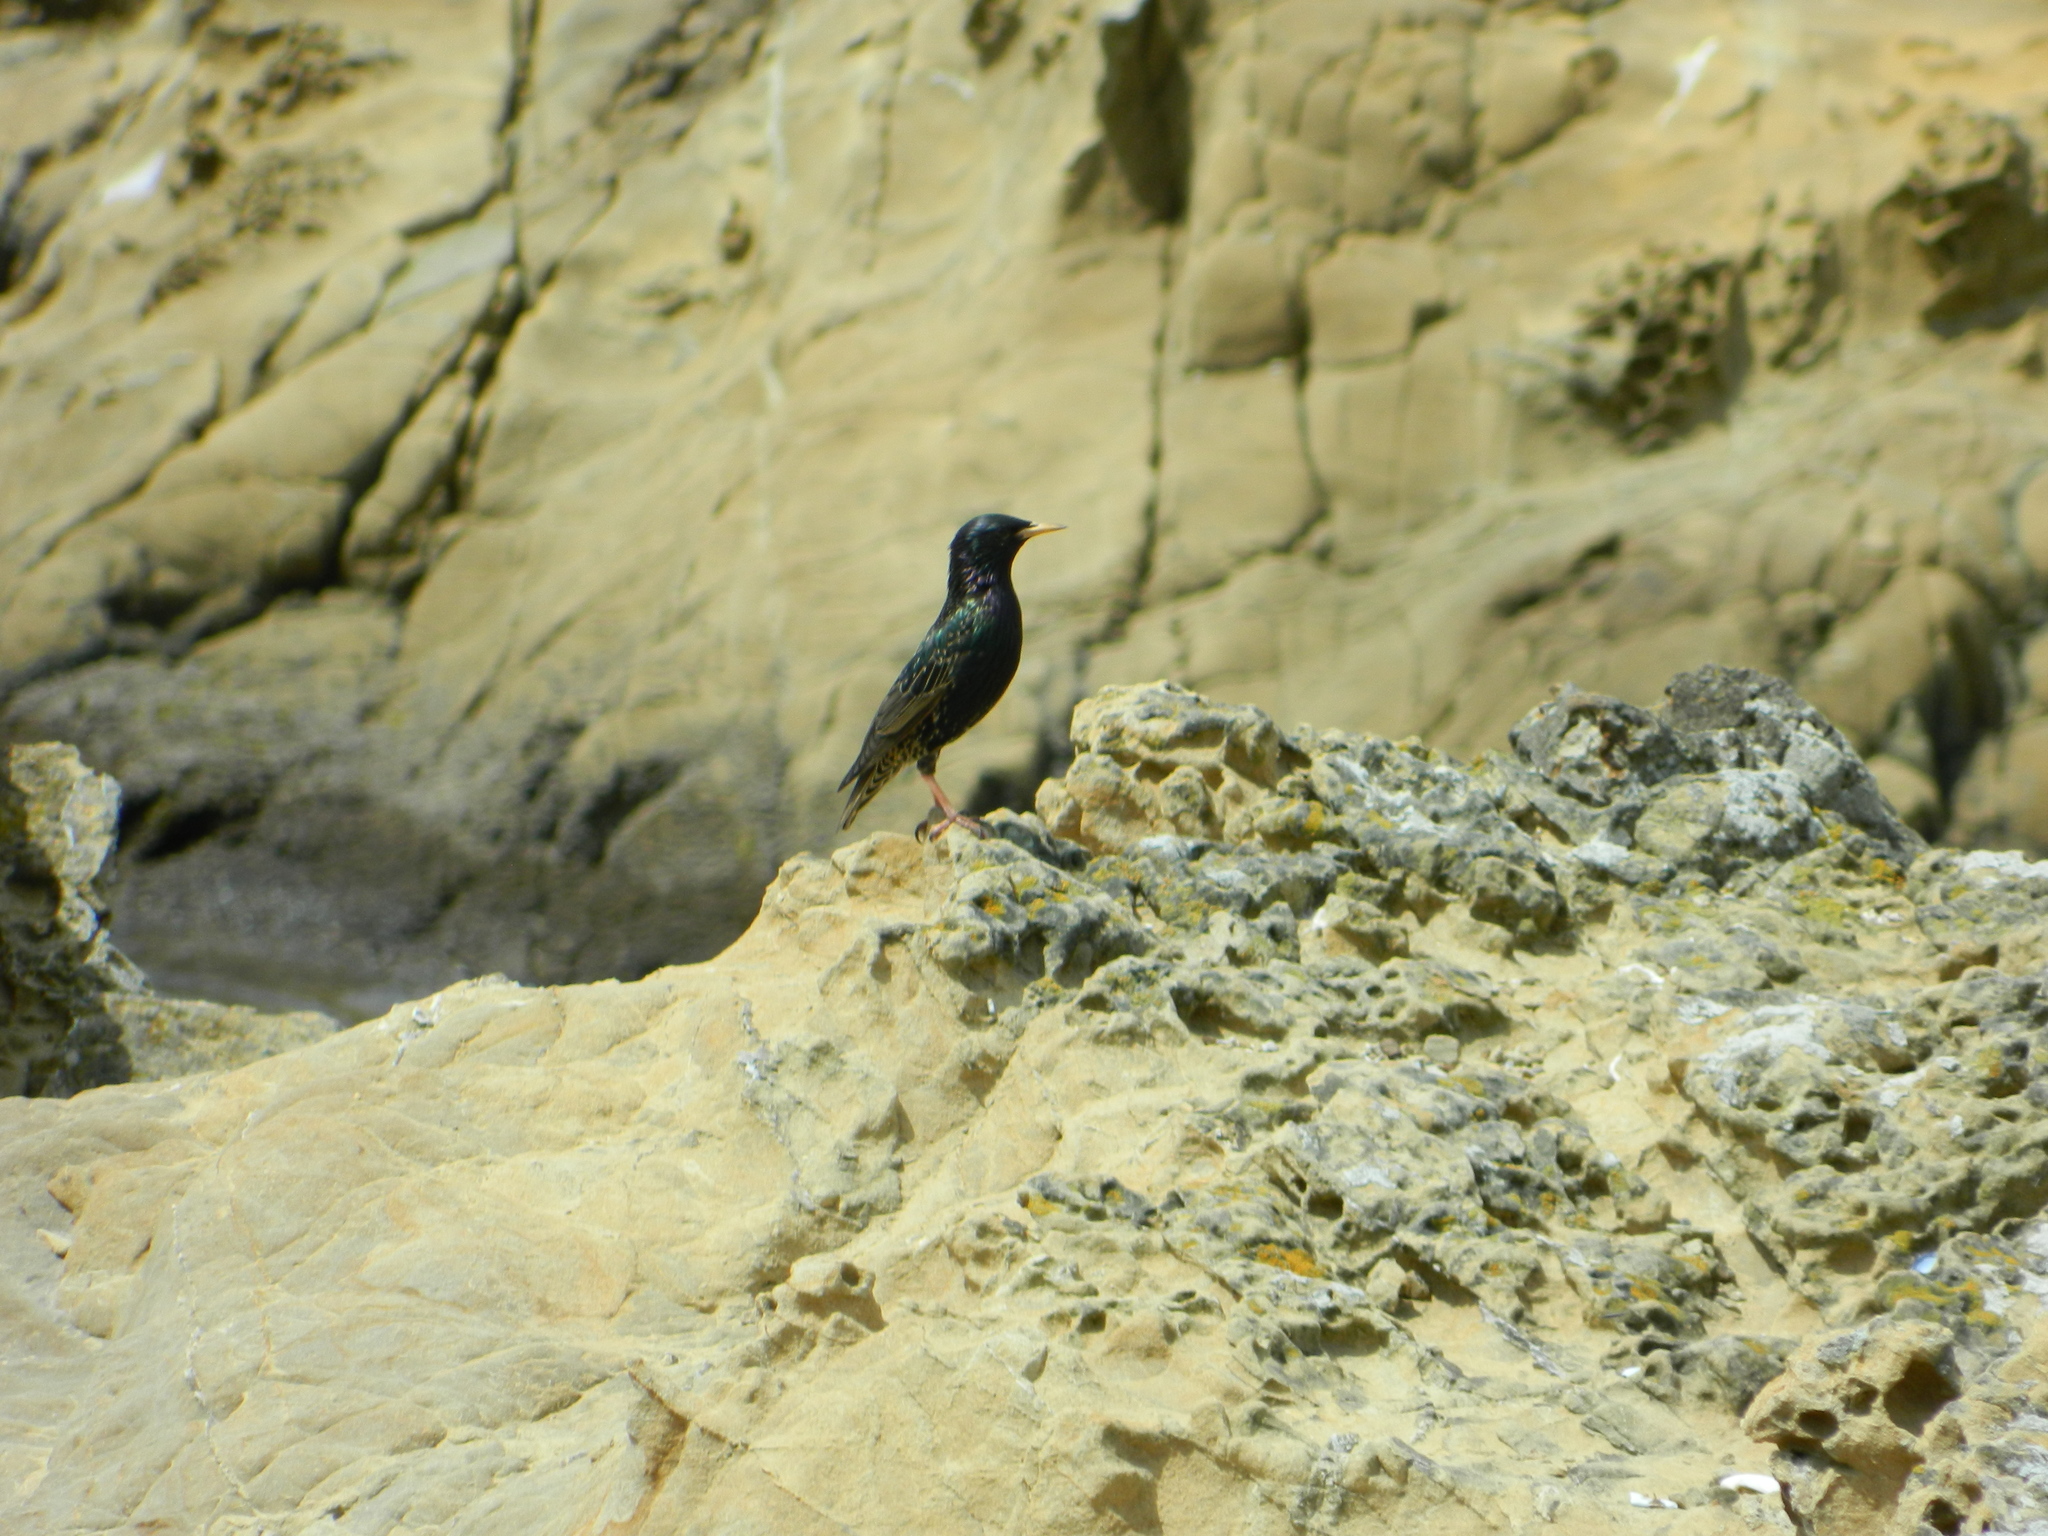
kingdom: Animalia
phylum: Chordata
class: Aves
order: Passeriformes
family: Sturnidae
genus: Sturnus
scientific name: Sturnus vulgaris
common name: Common starling
